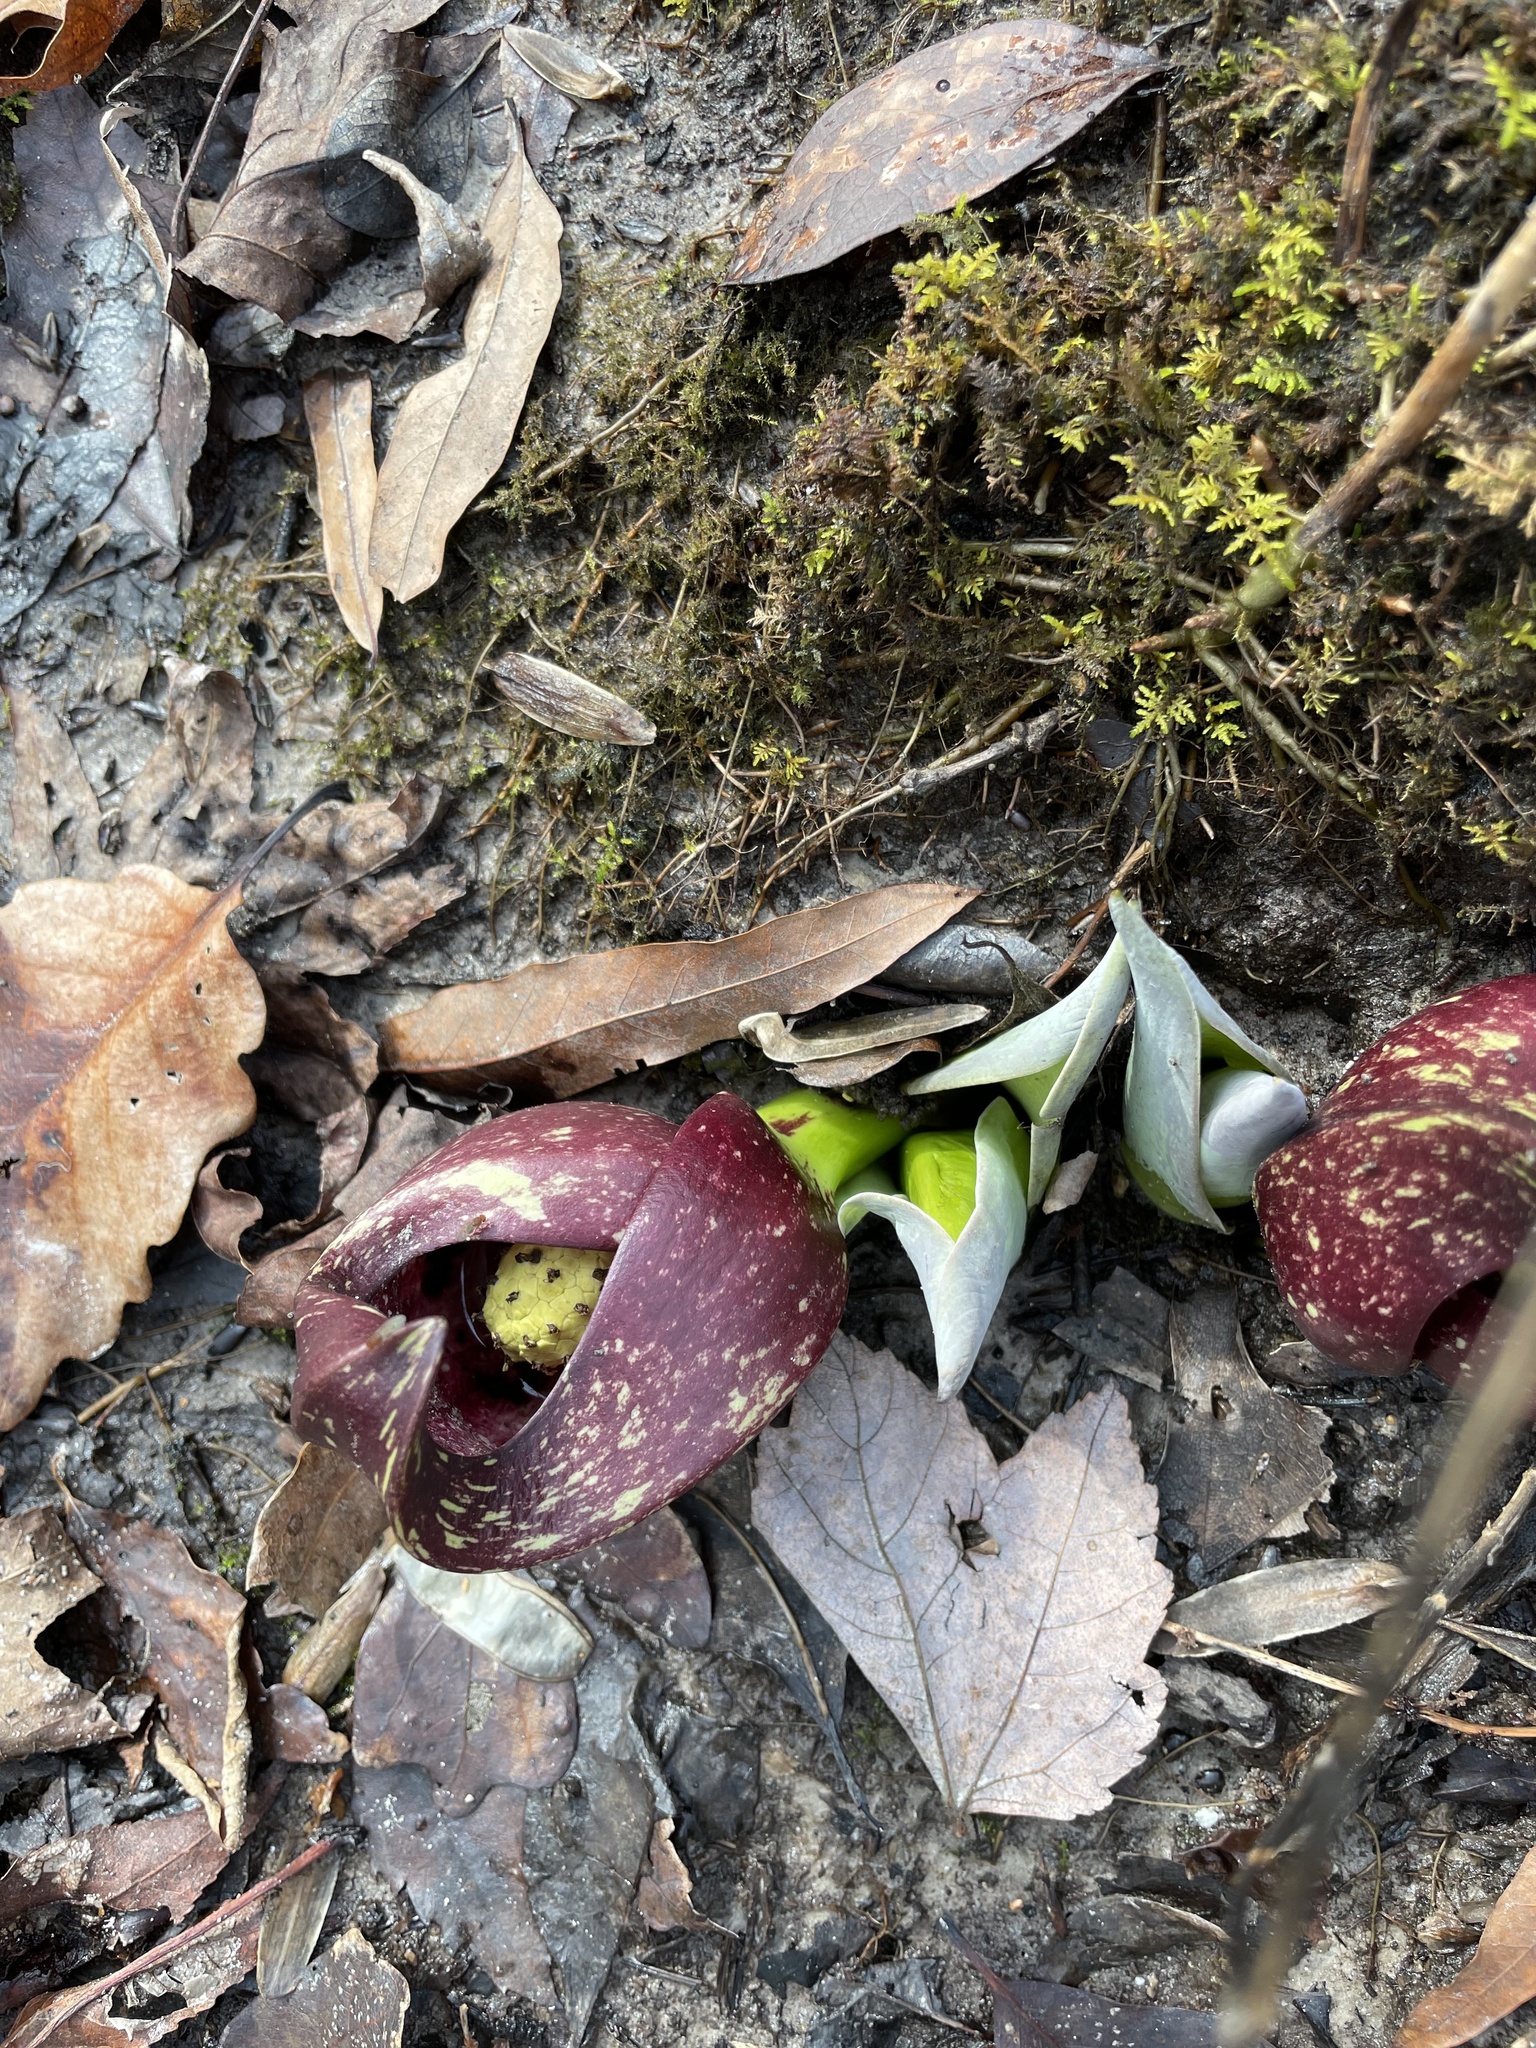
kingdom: Plantae
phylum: Tracheophyta
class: Liliopsida
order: Alismatales
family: Araceae
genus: Symplocarpus
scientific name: Symplocarpus foetidus
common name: Eastern skunk cabbage
